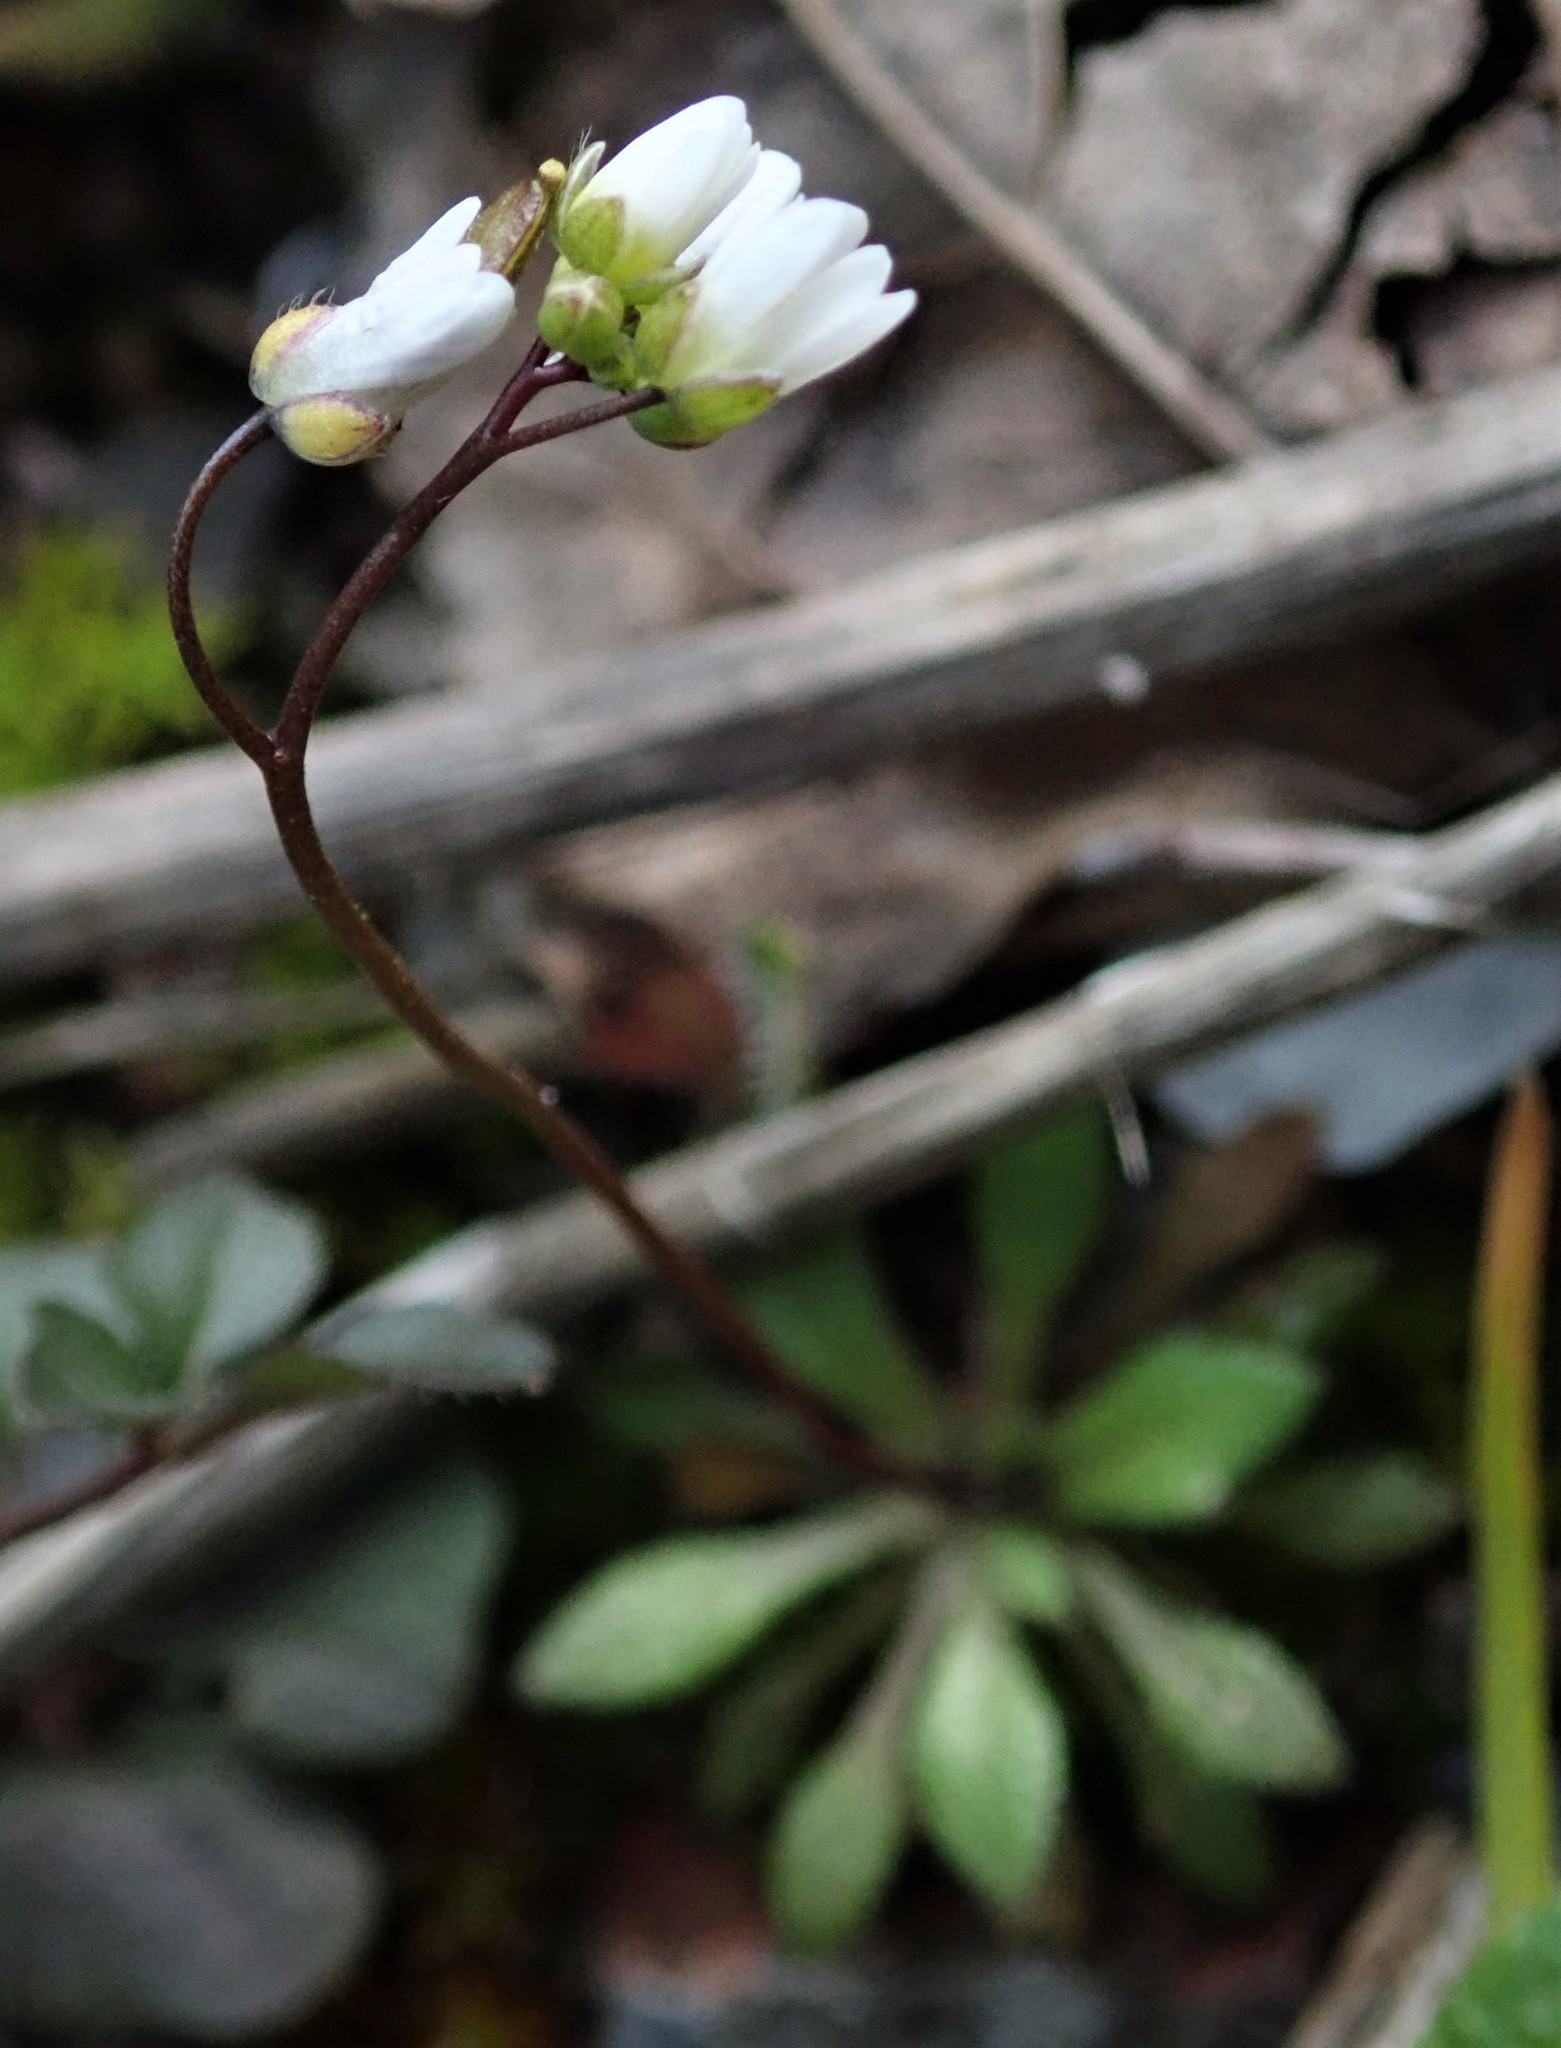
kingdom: Plantae
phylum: Tracheophyta
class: Magnoliopsida
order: Brassicales
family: Brassicaceae
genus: Draba
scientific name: Draba verna
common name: Spring draba
